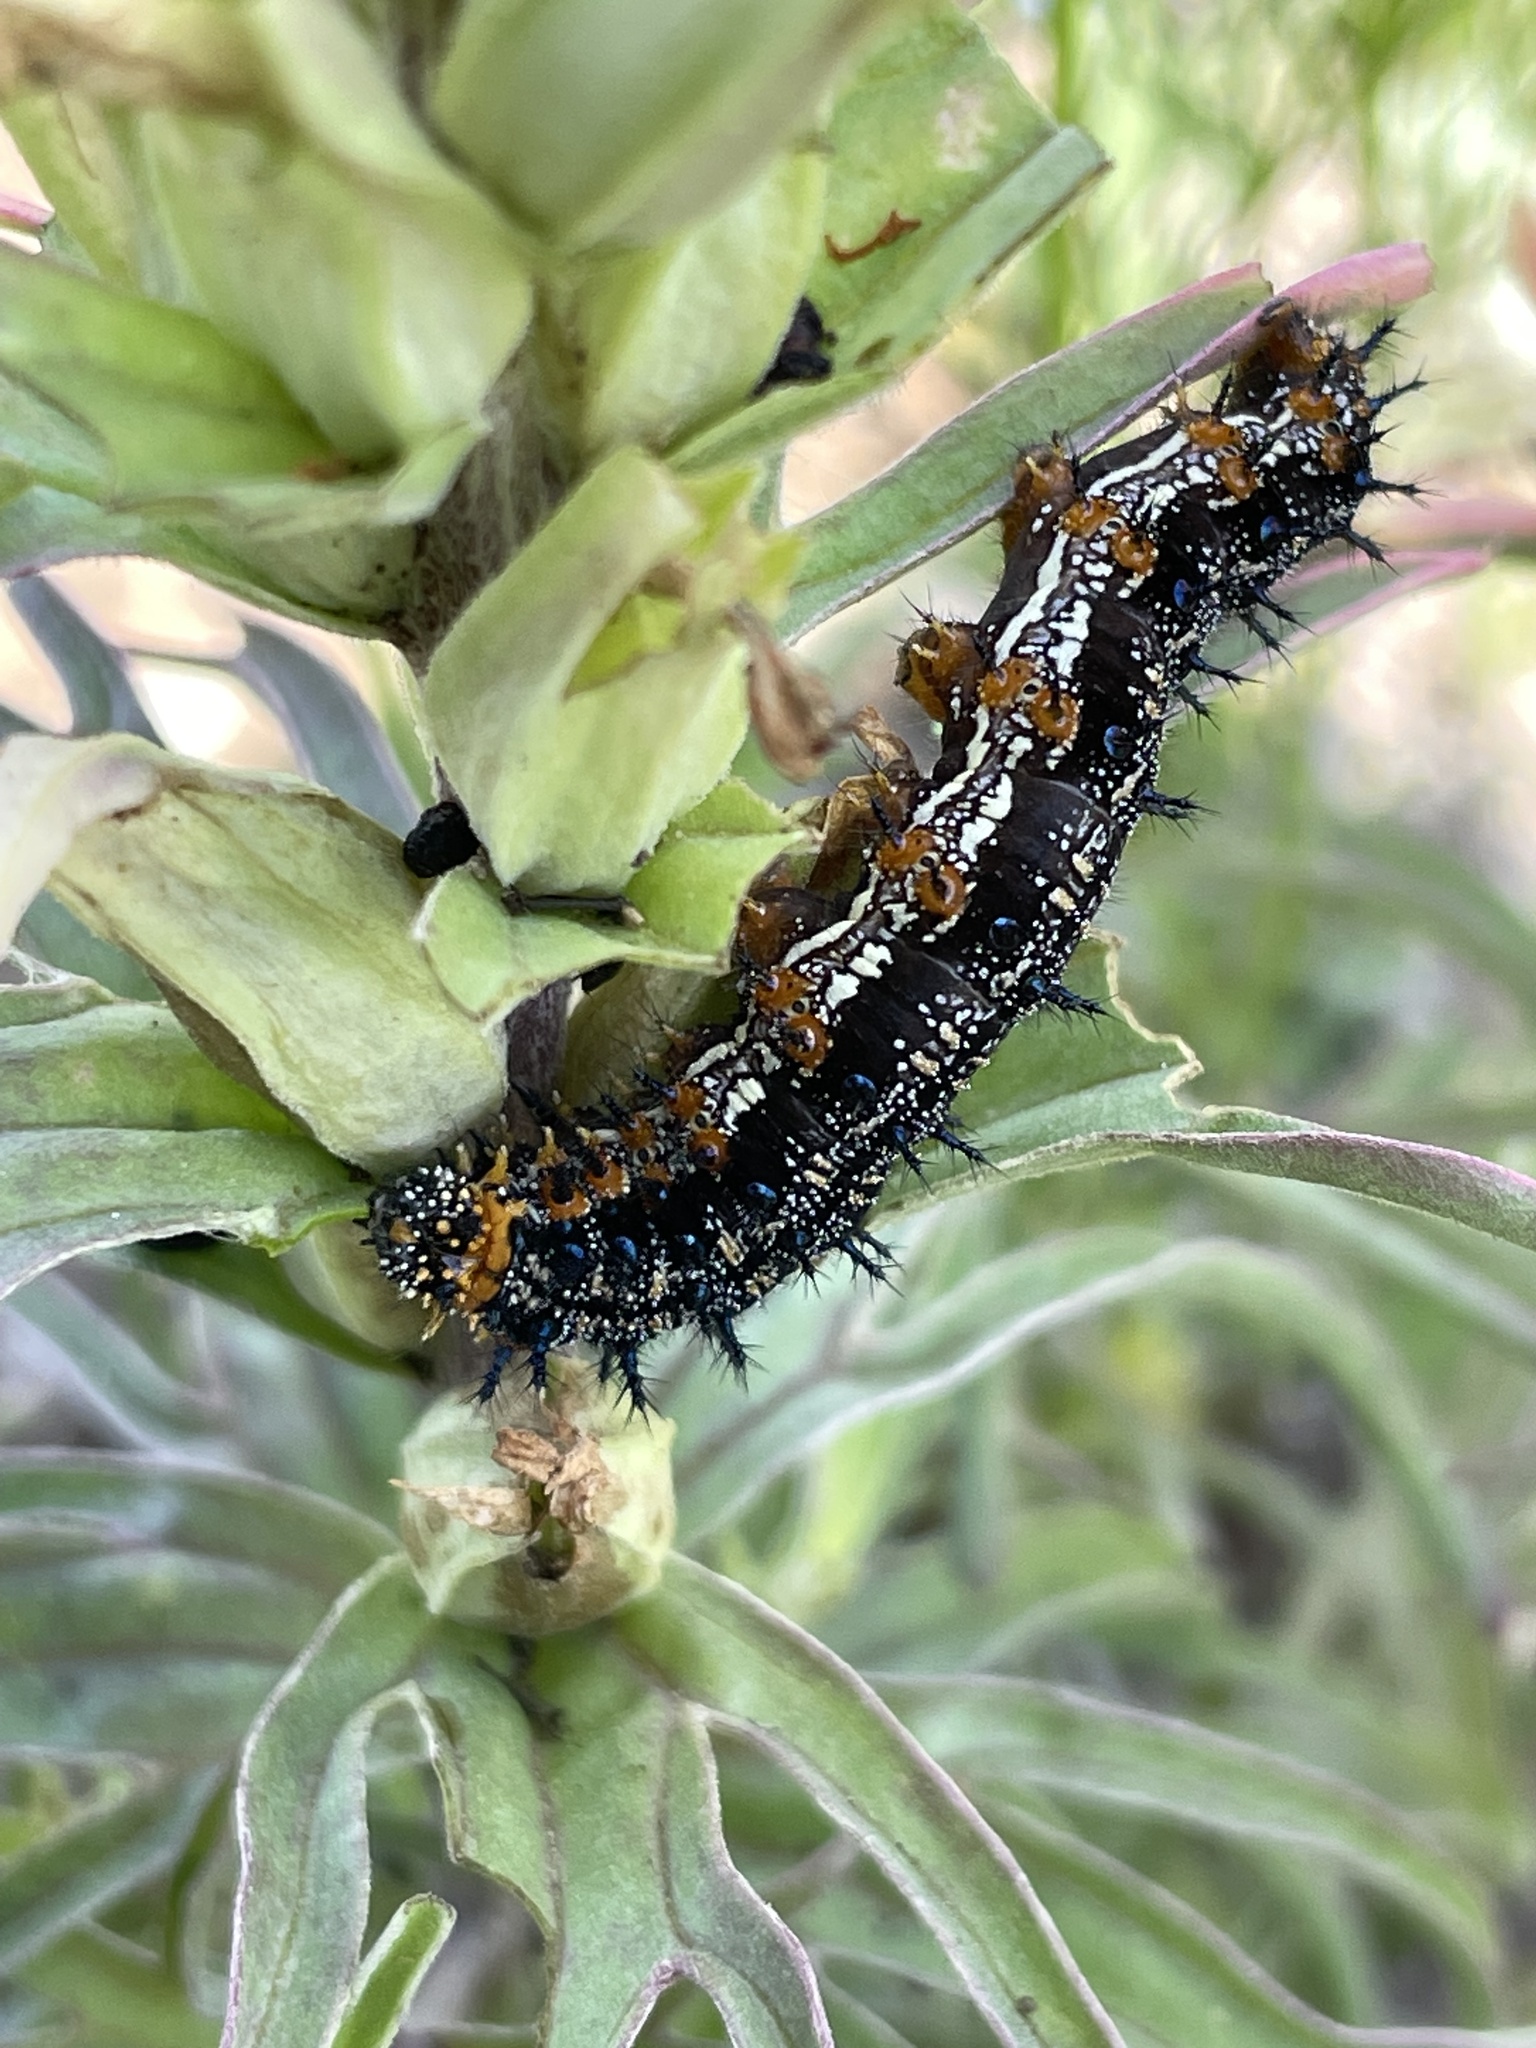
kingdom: Animalia
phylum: Arthropoda
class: Insecta
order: Lepidoptera
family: Nymphalidae
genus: Junonia
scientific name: Junonia coenia
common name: Common buckeye
